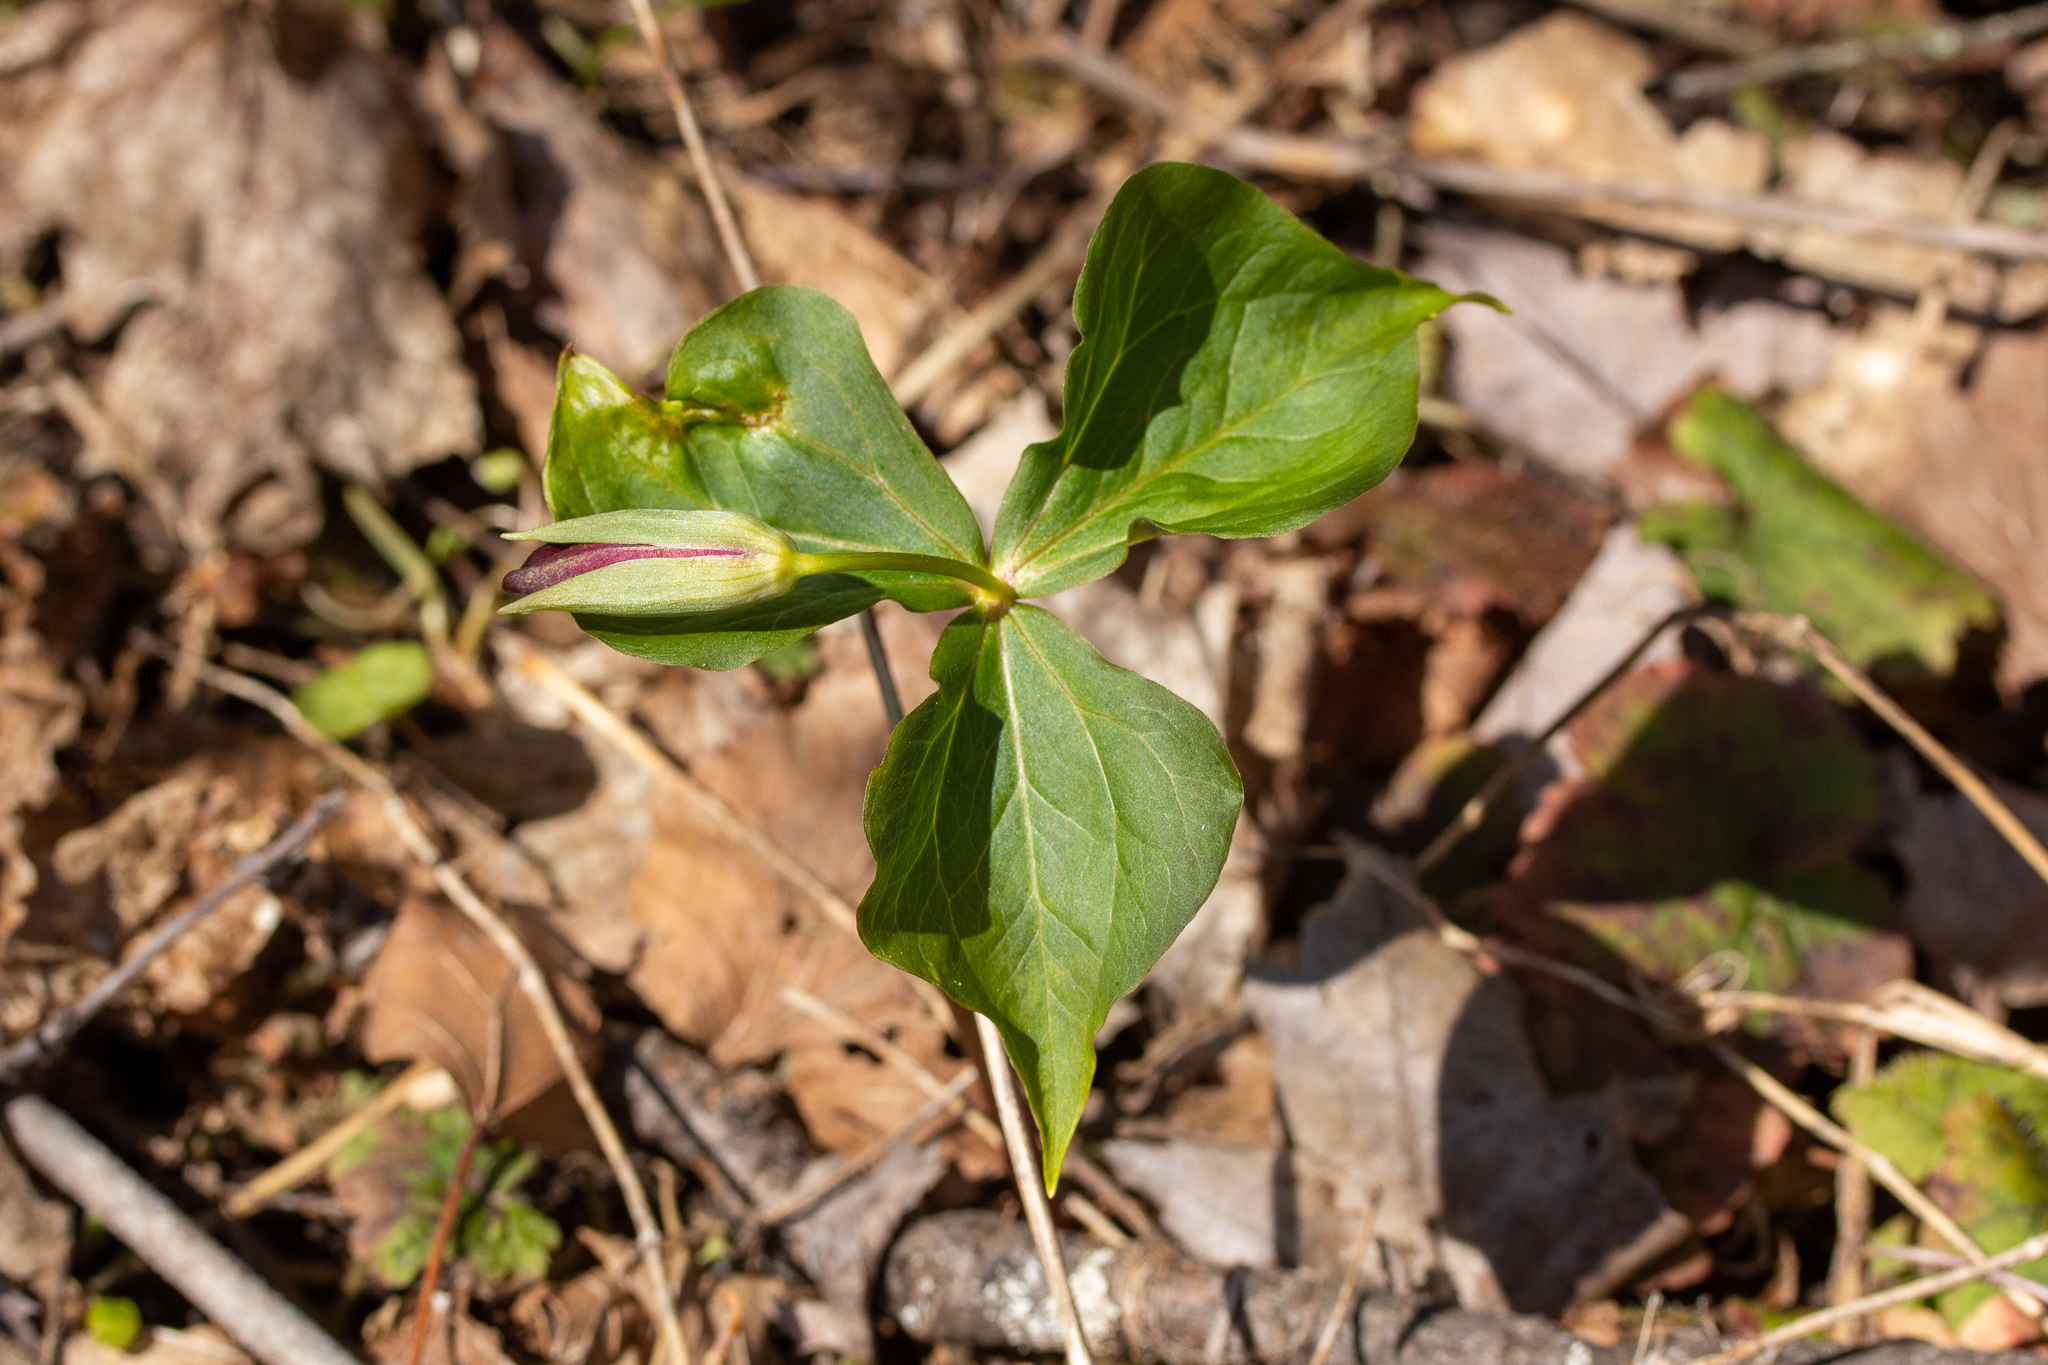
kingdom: Plantae
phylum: Tracheophyta
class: Liliopsida
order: Liliales
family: Melanthiaceae
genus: Trillium
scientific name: Trillium erectum
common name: Purple trillium
